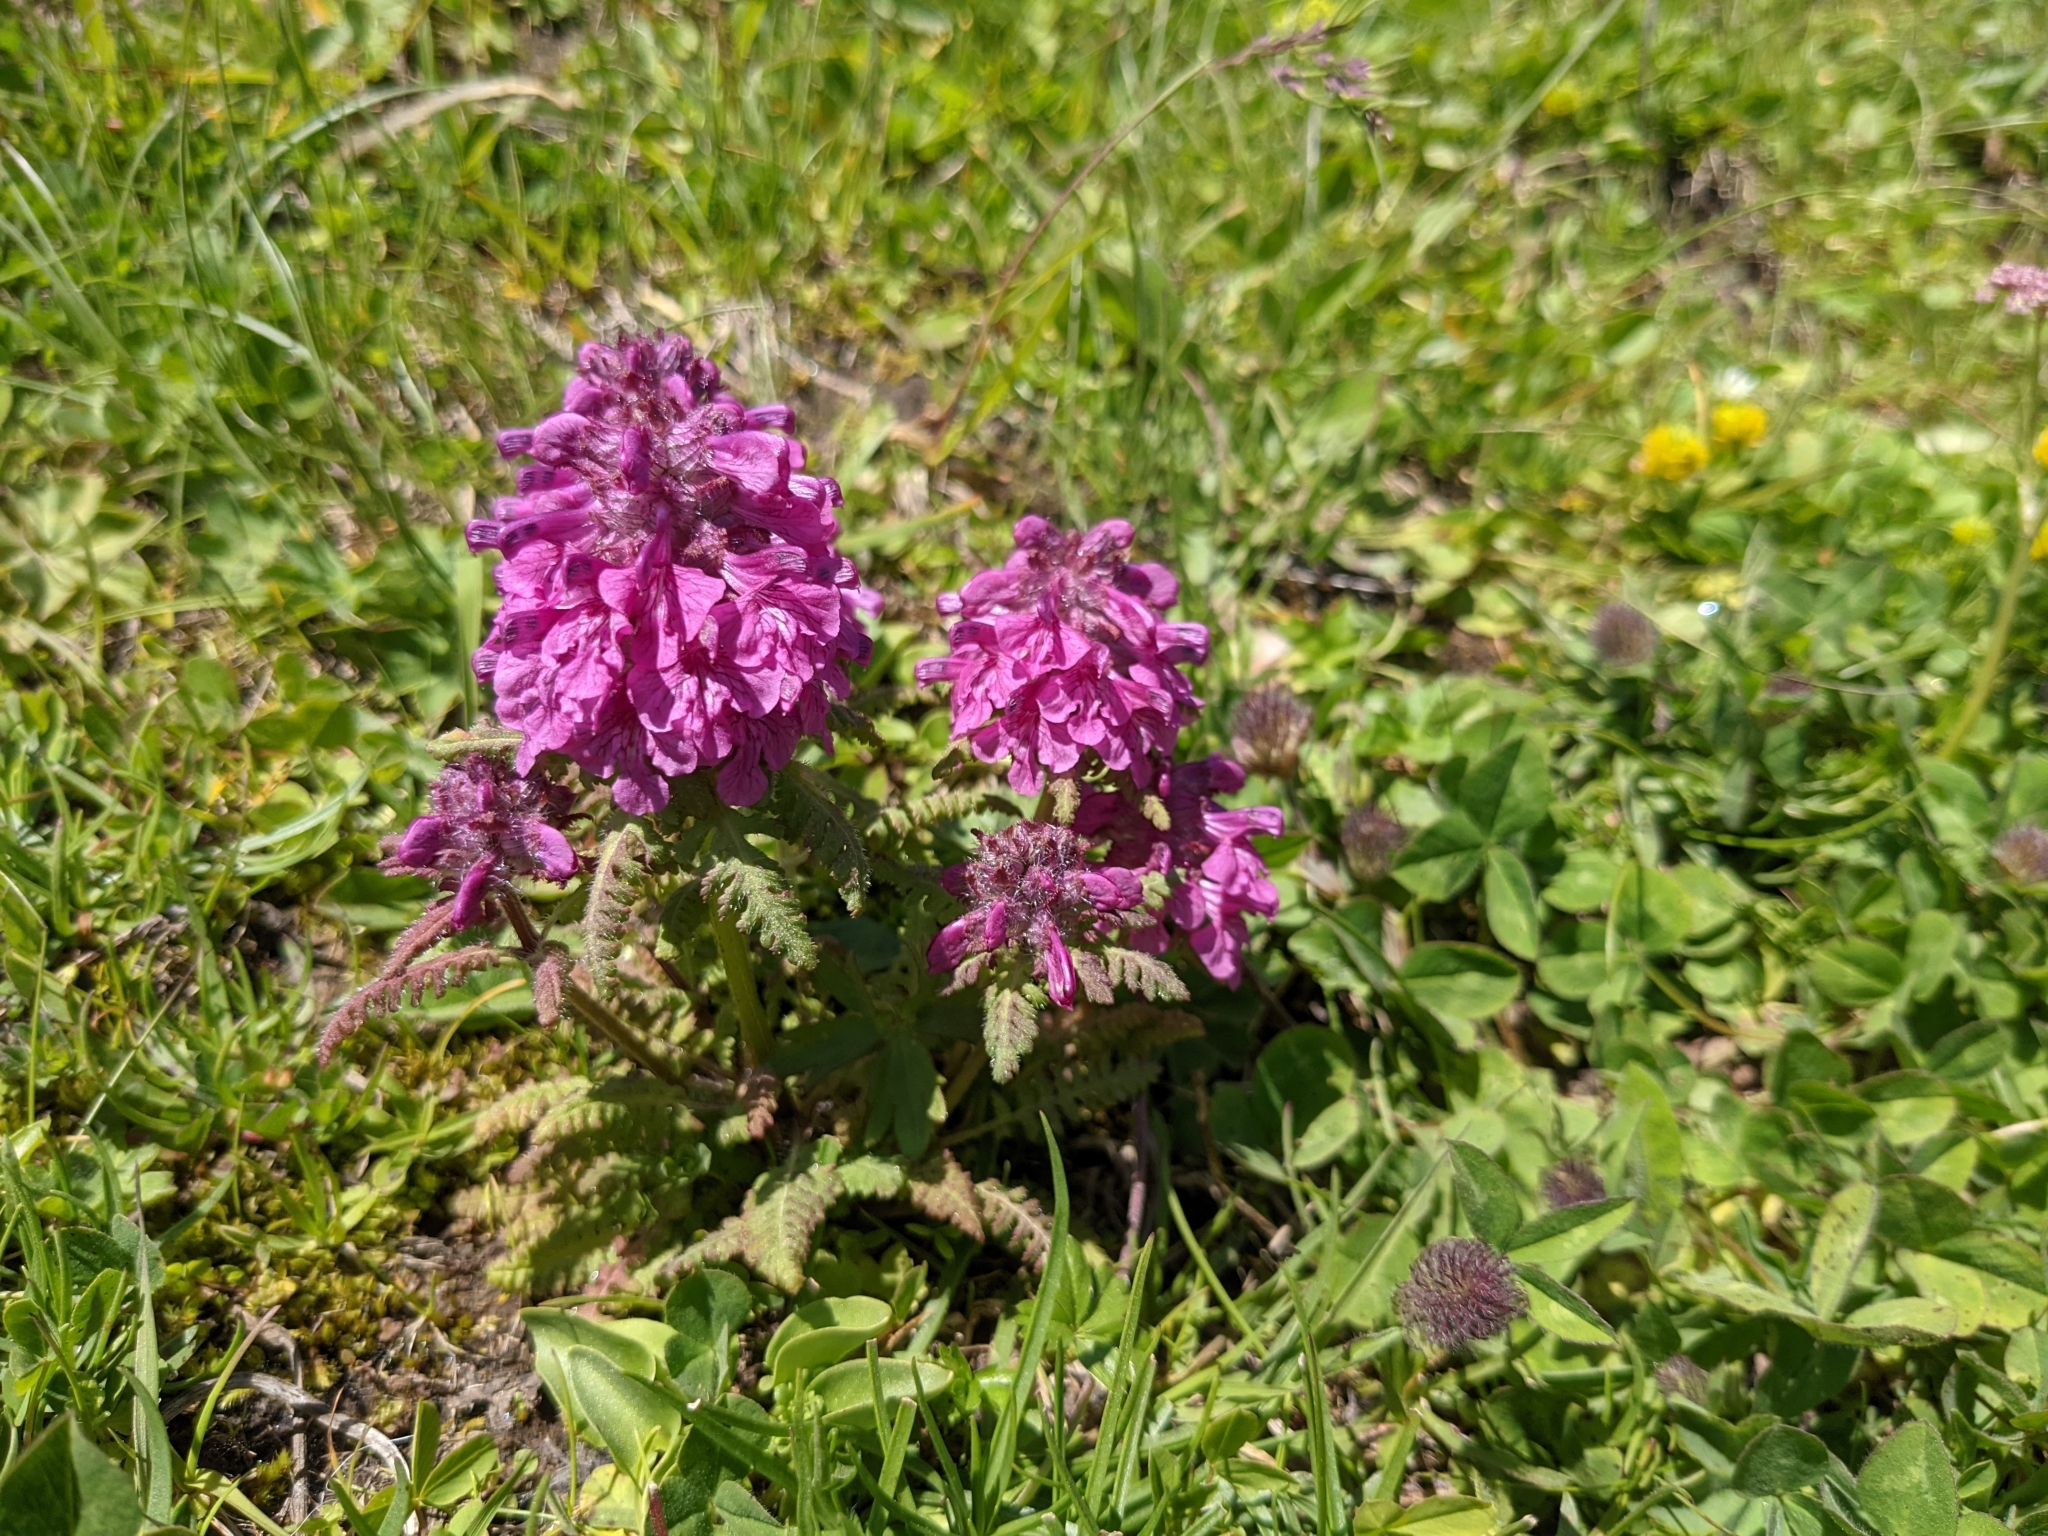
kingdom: Plantae
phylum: Tracheophyta
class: Magnoliopsida
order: Lamiales
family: Orobanchaceae
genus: Pedicularis
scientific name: Pedicularis verticillata
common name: Whorled lousewort
